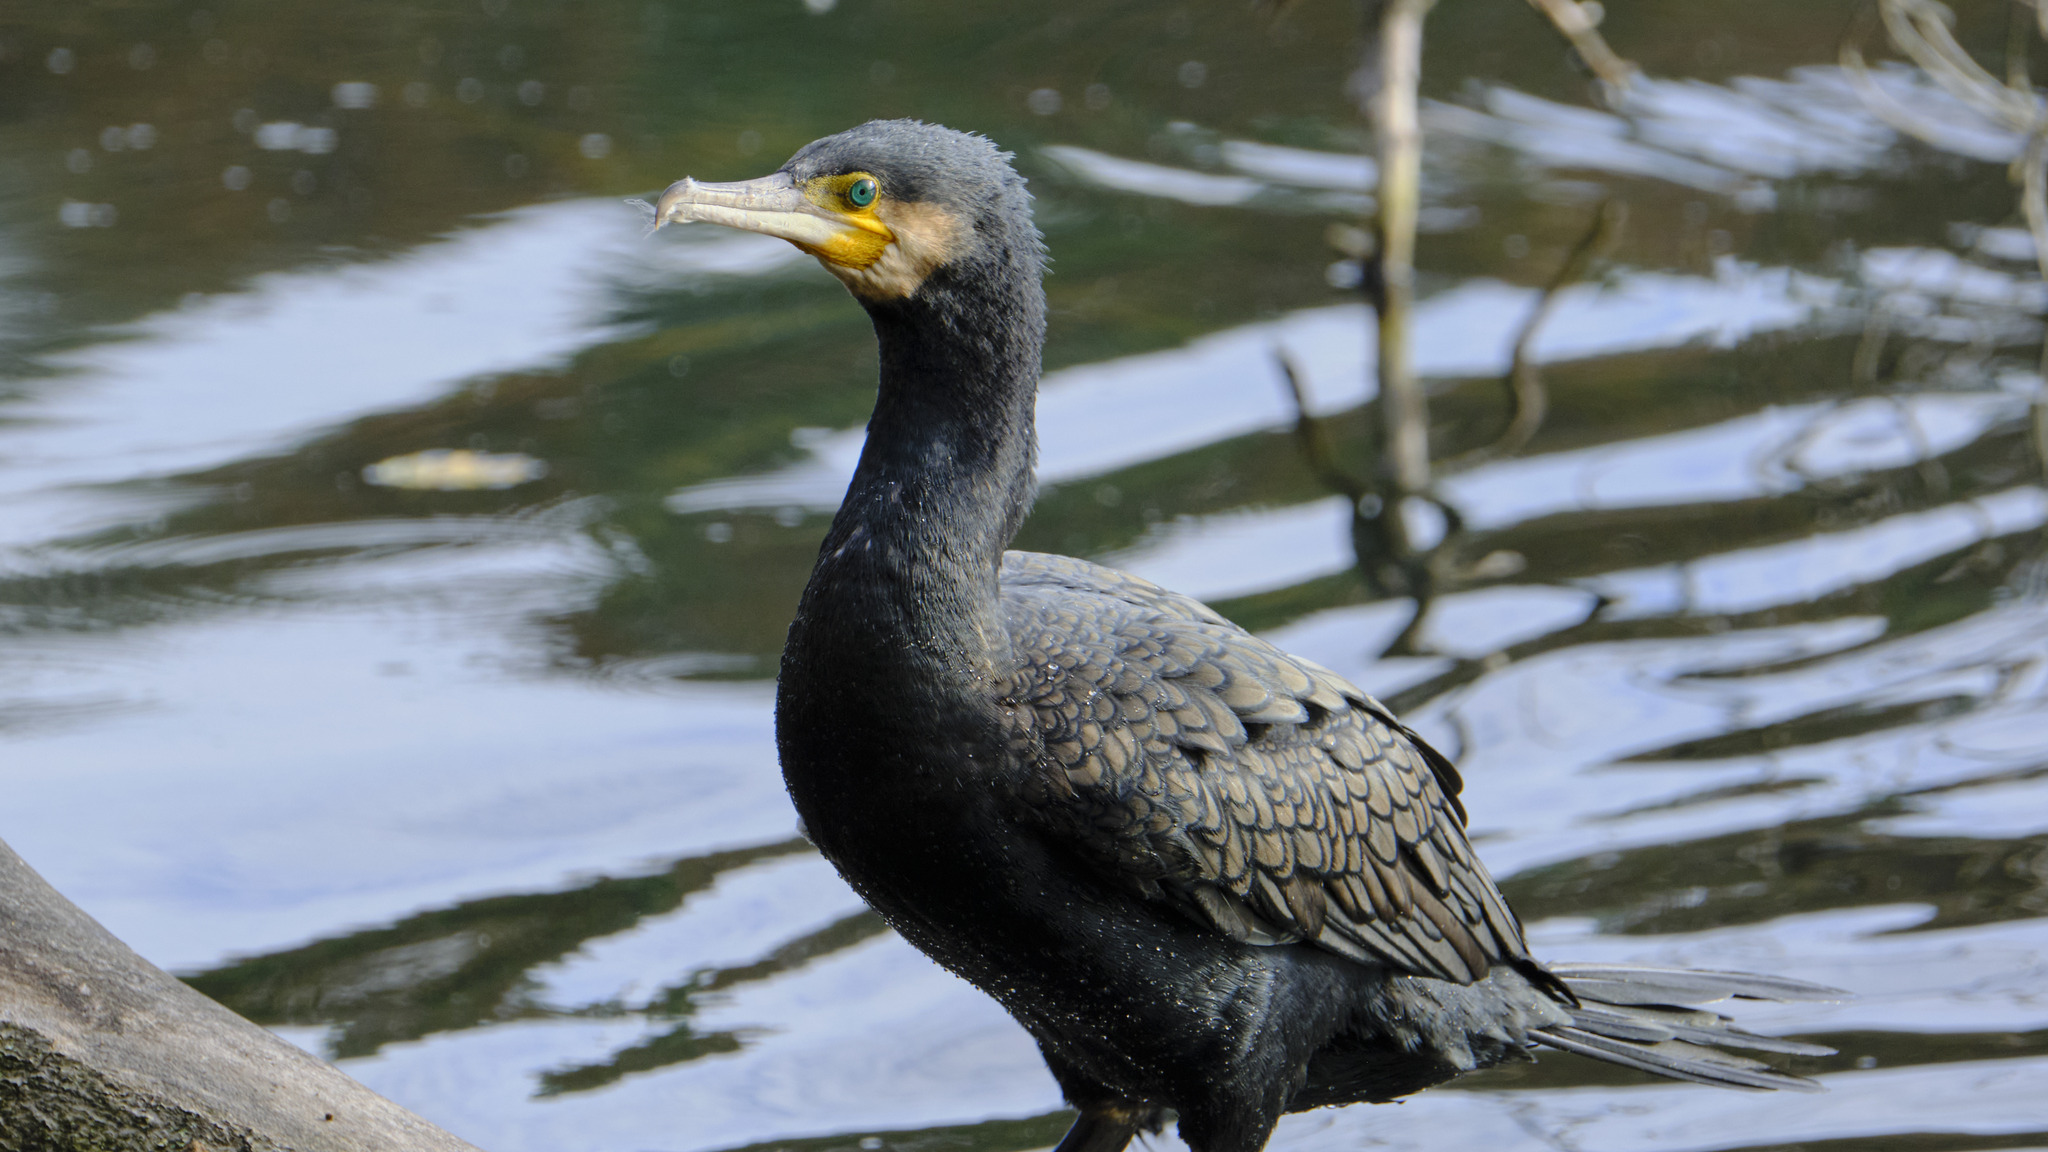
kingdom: Animalia
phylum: Chordata
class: Aves
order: Suliformes
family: Phalacrocoracidae
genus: Phalacrocorax
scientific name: Phalacrocorax carbo
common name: Great cormorant
